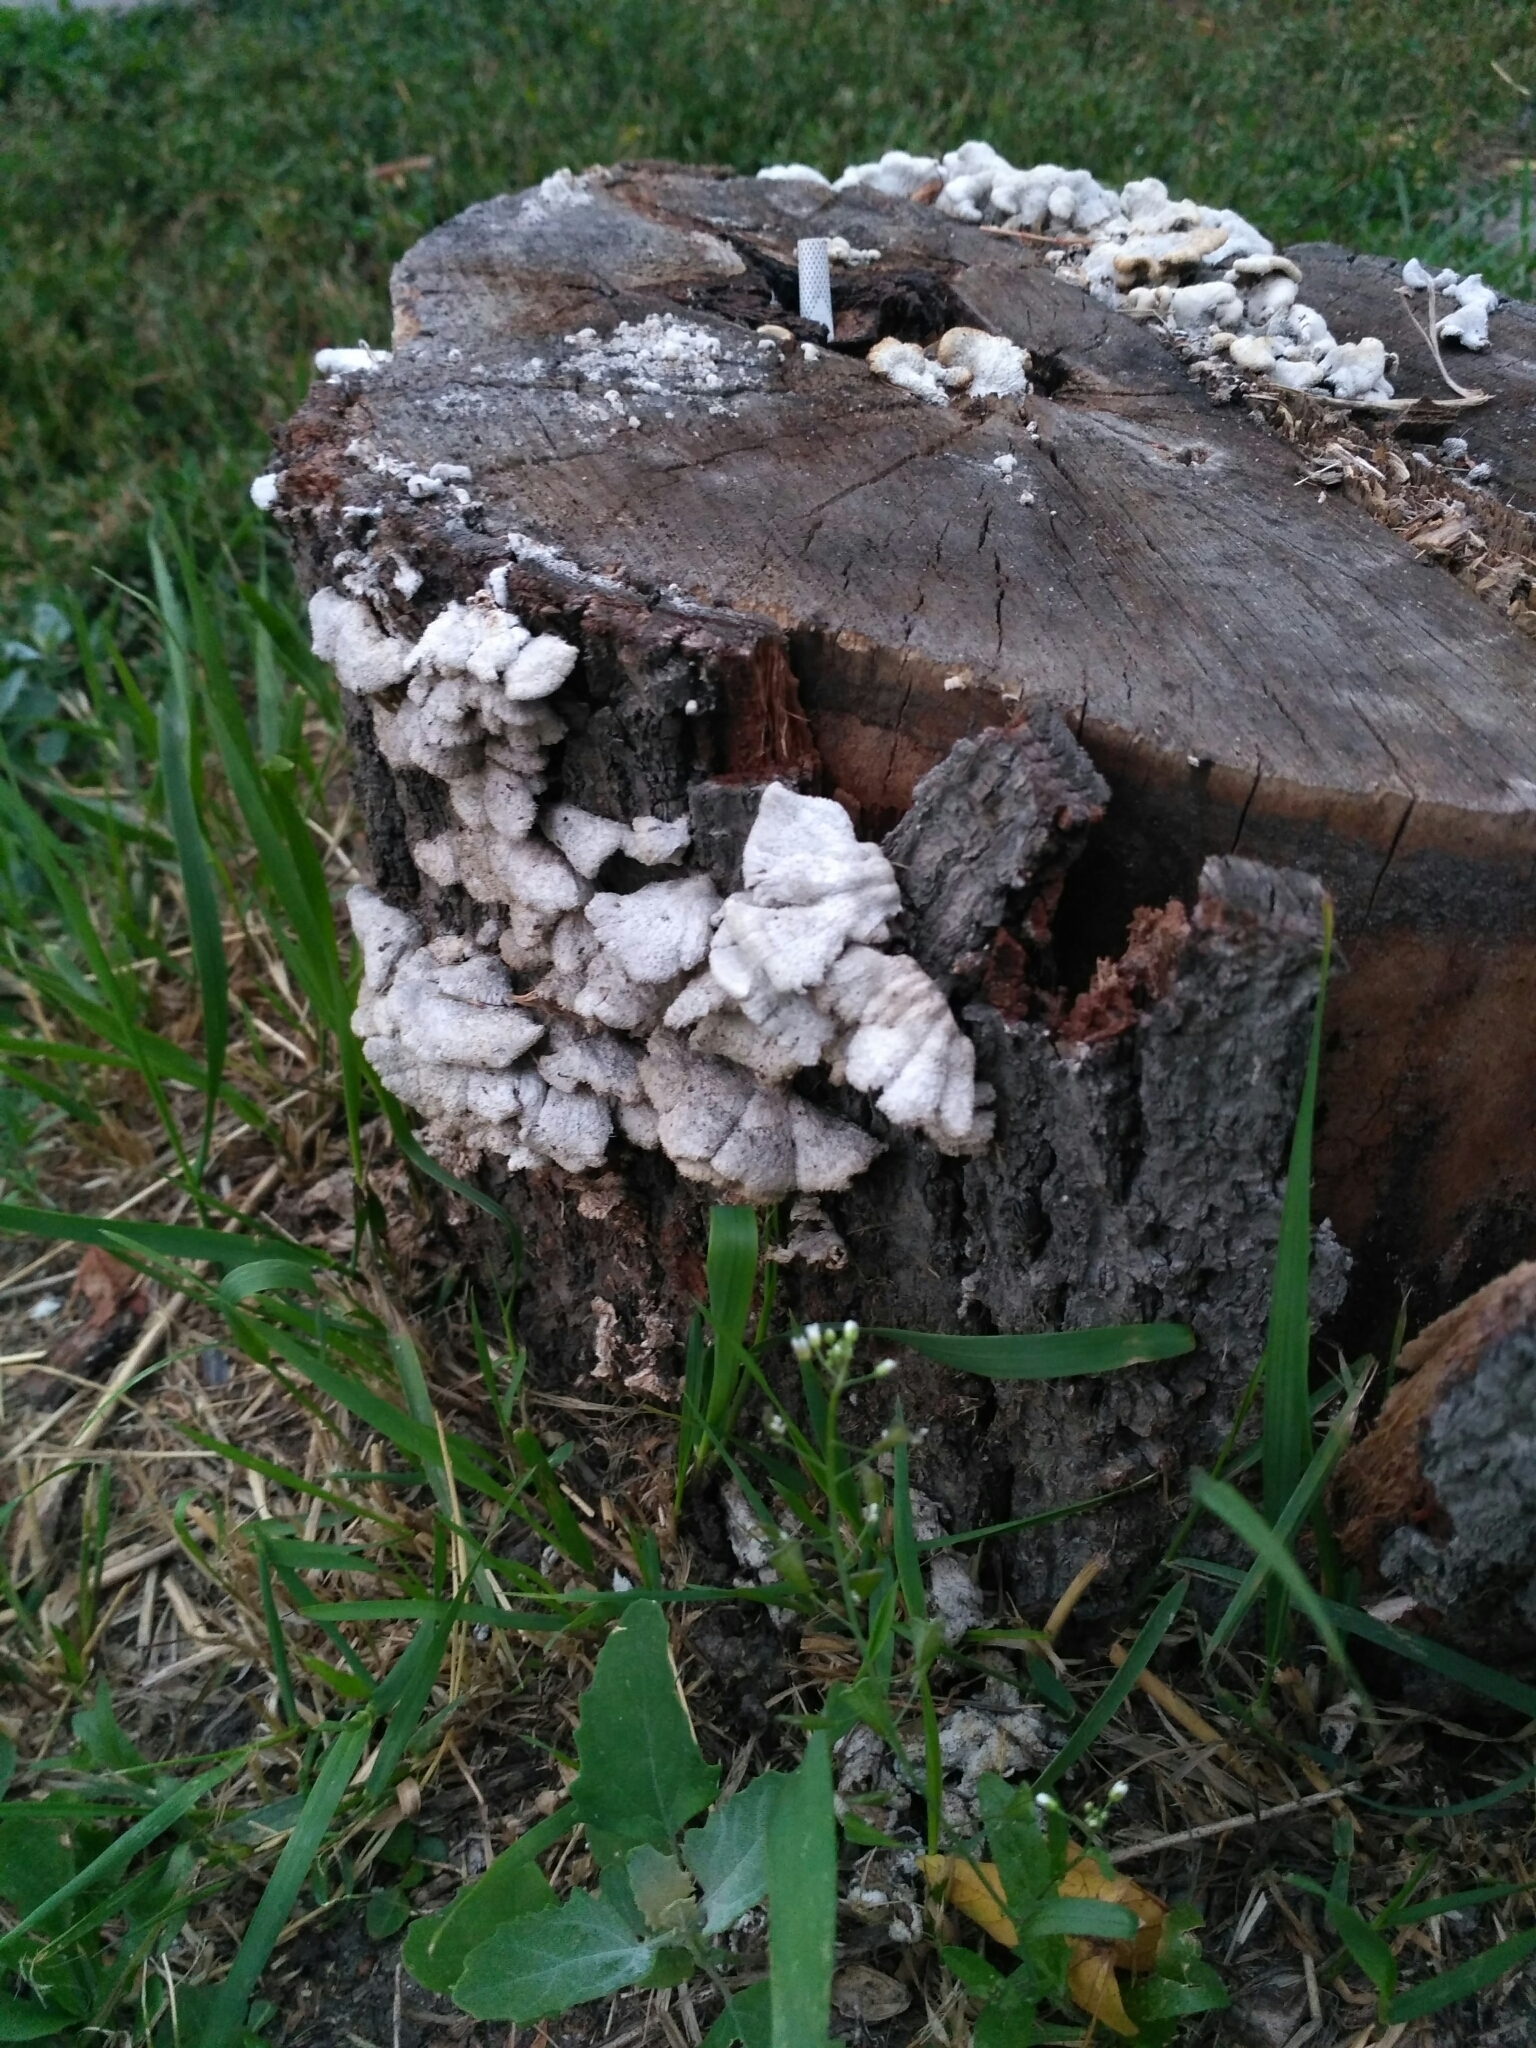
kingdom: Fungi
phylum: Basidiomycota
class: Agaricomycetes
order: Agaricales
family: Schizophyllaceae
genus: Schizophyllum
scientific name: Schizophyllum commune
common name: Common porecrust
